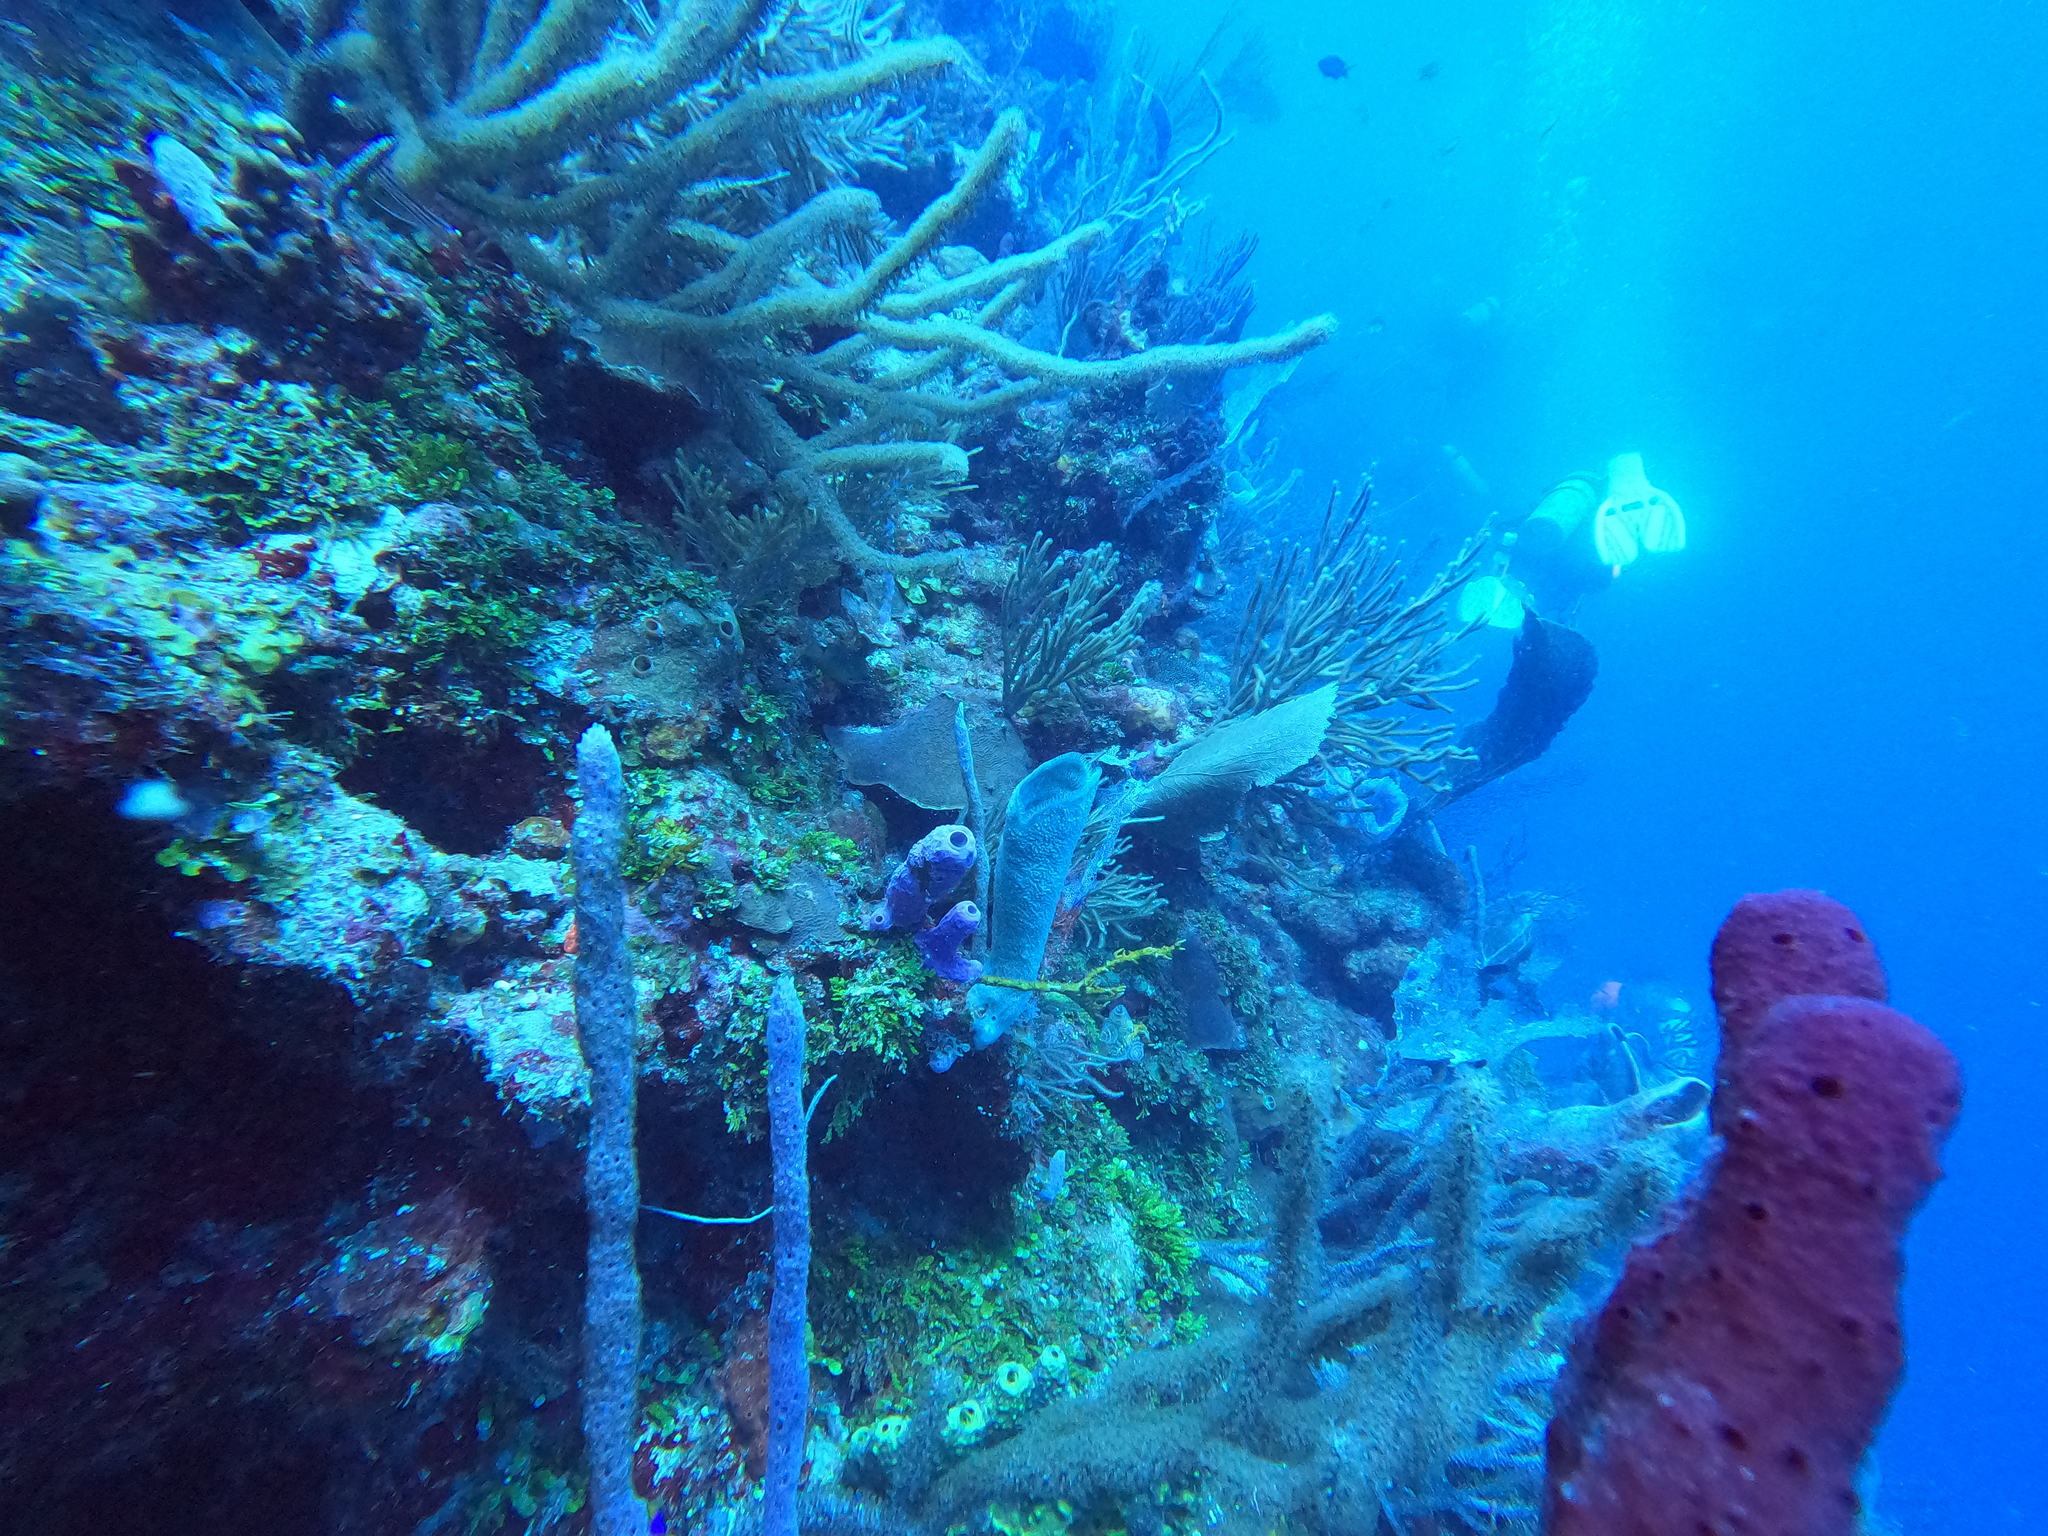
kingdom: Animalia
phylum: Porifera
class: Demospongiae
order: Verongiida
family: Aplysinidae
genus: Aplysina
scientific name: Aplysina archeri
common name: Stove-pipe sponge
